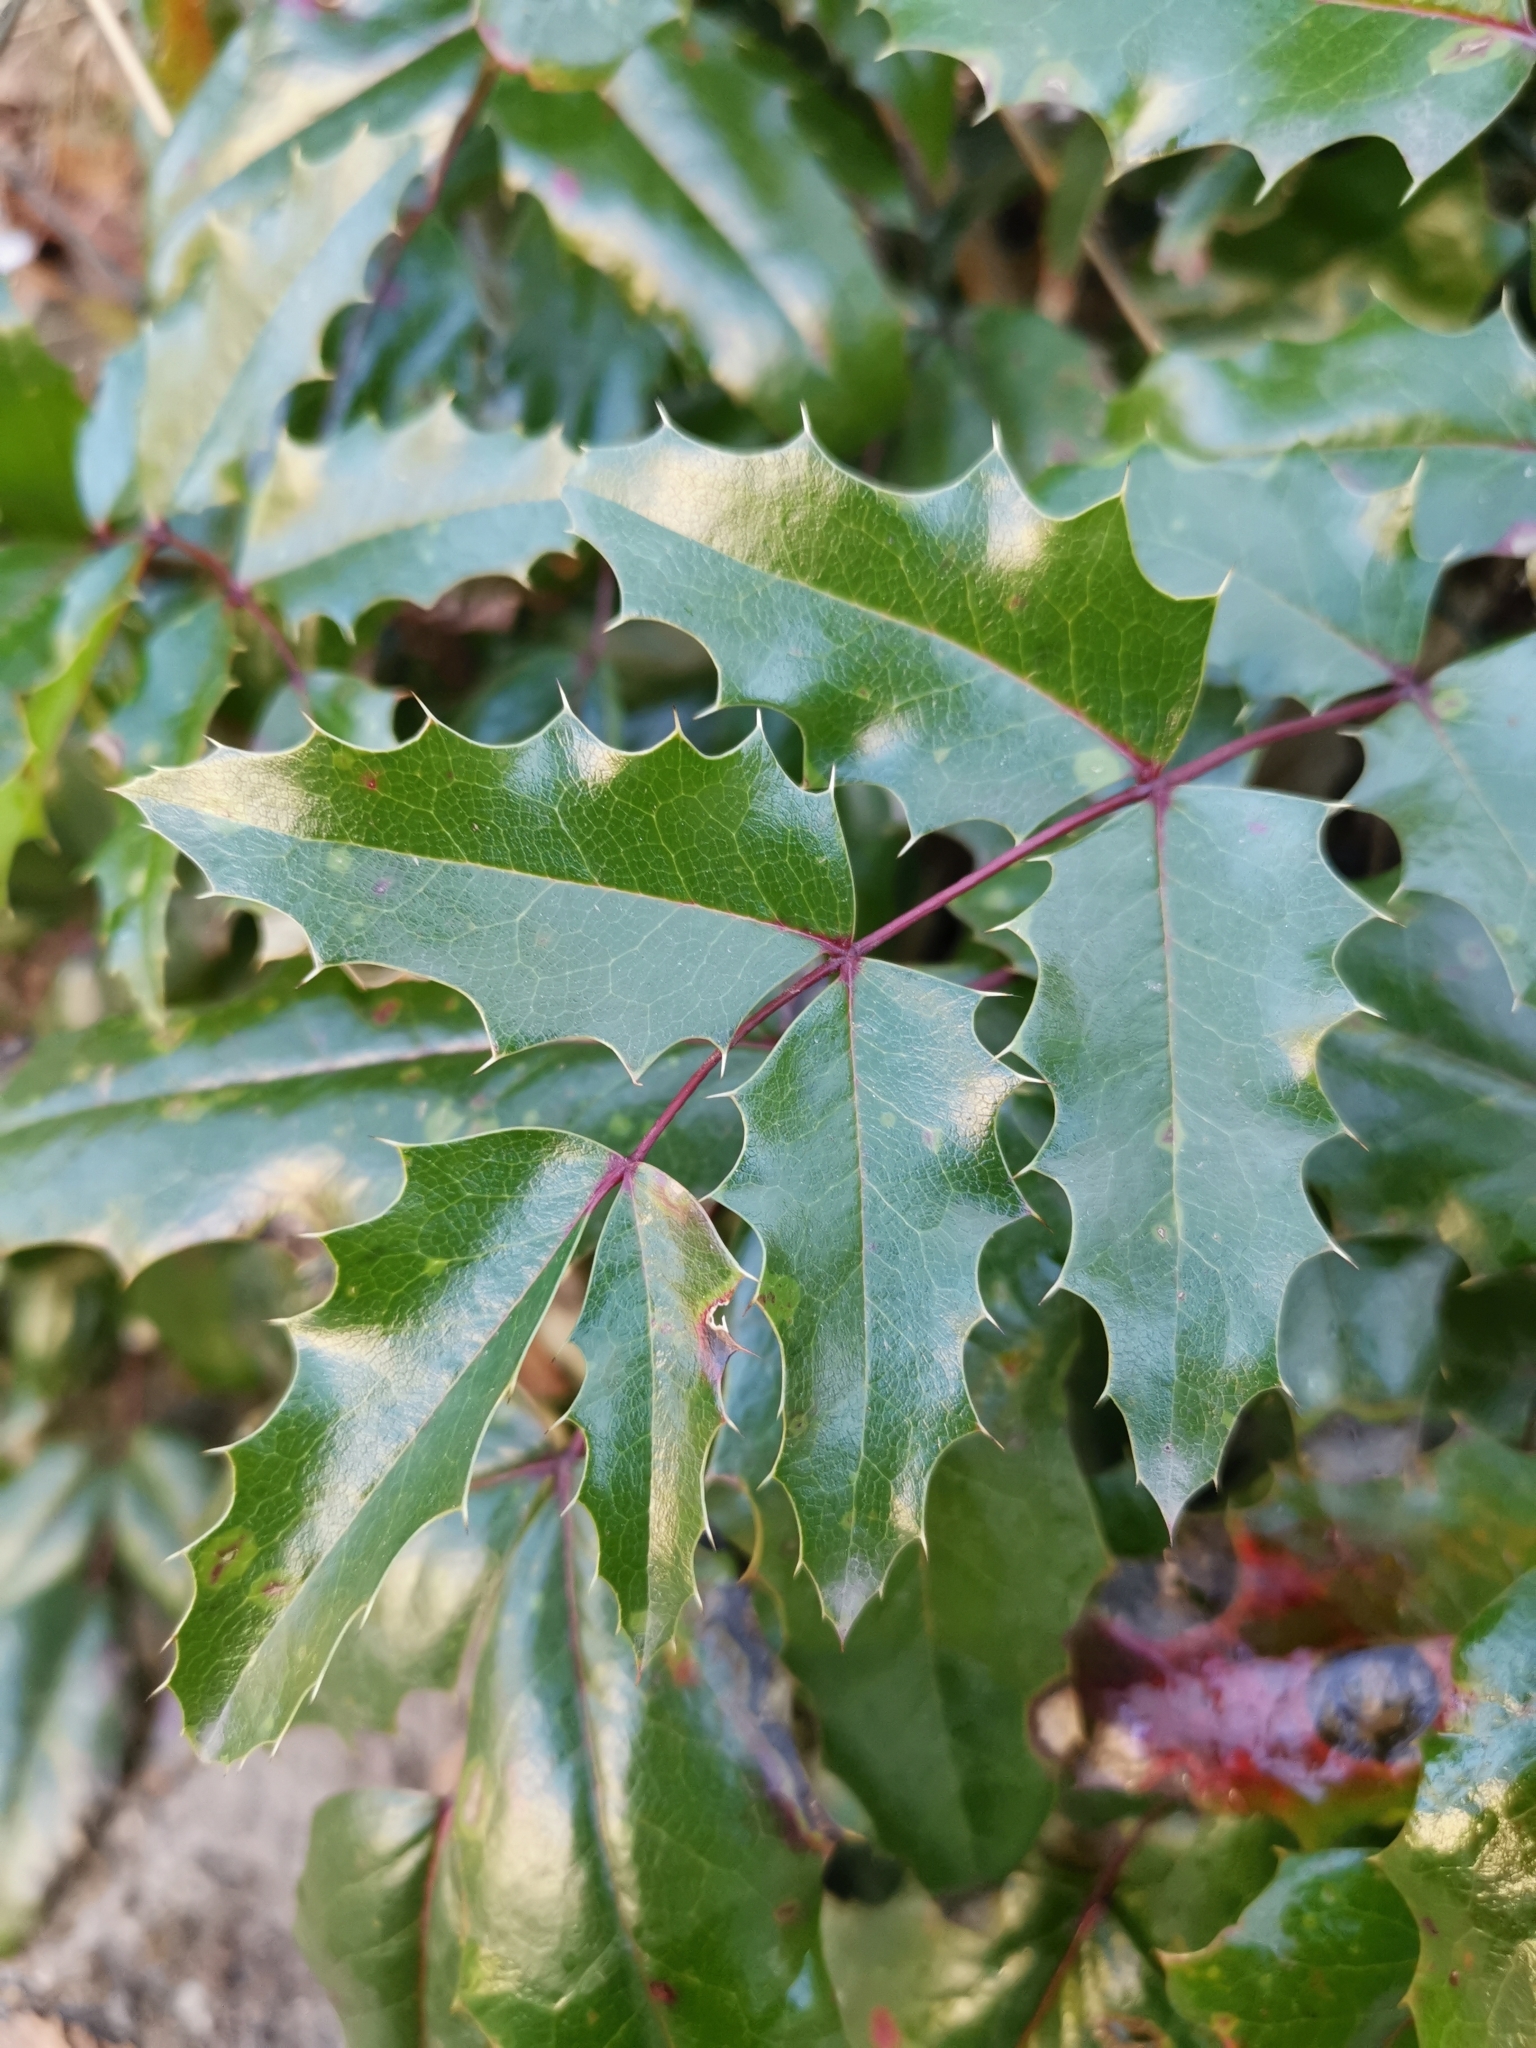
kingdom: Plantae
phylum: Tracheophyta
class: Magnoliopsida
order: Ranunculales
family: Berberidaceae
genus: Mahonia
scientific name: Mahonia aquifolium
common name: Oregon-grape
